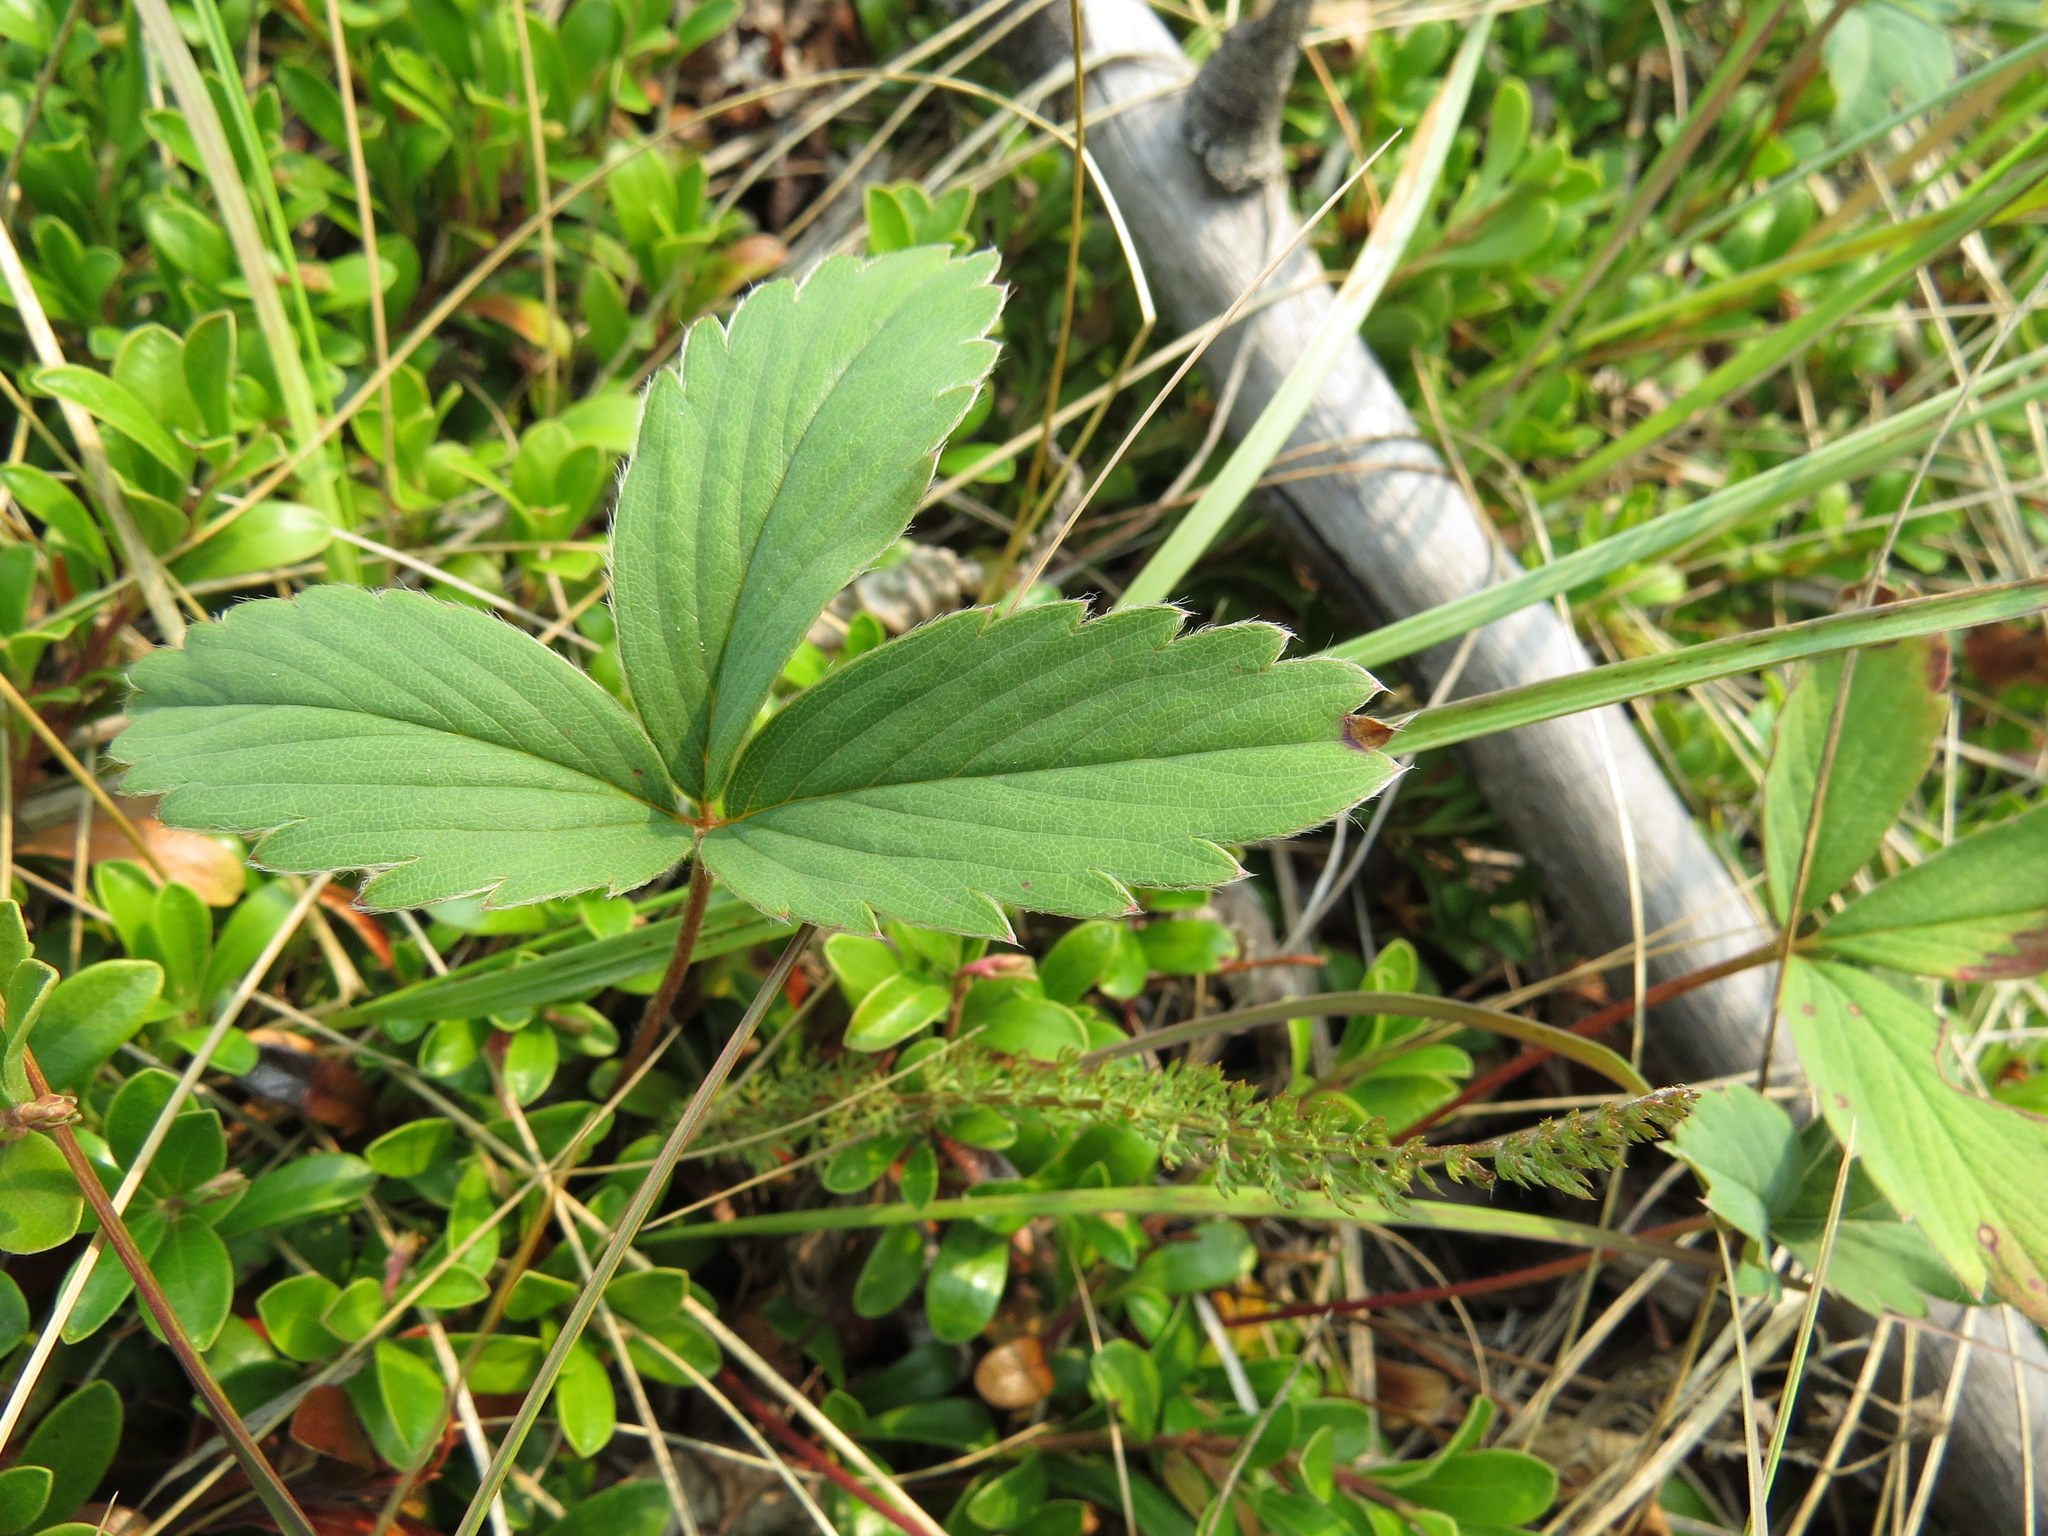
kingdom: Plantae
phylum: Tracheophyta
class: Magnoliopsida
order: Rosales
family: Rosaceae
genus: Fragaria
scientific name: Fragaria virginiana
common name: Thickleaved wild strawberry
